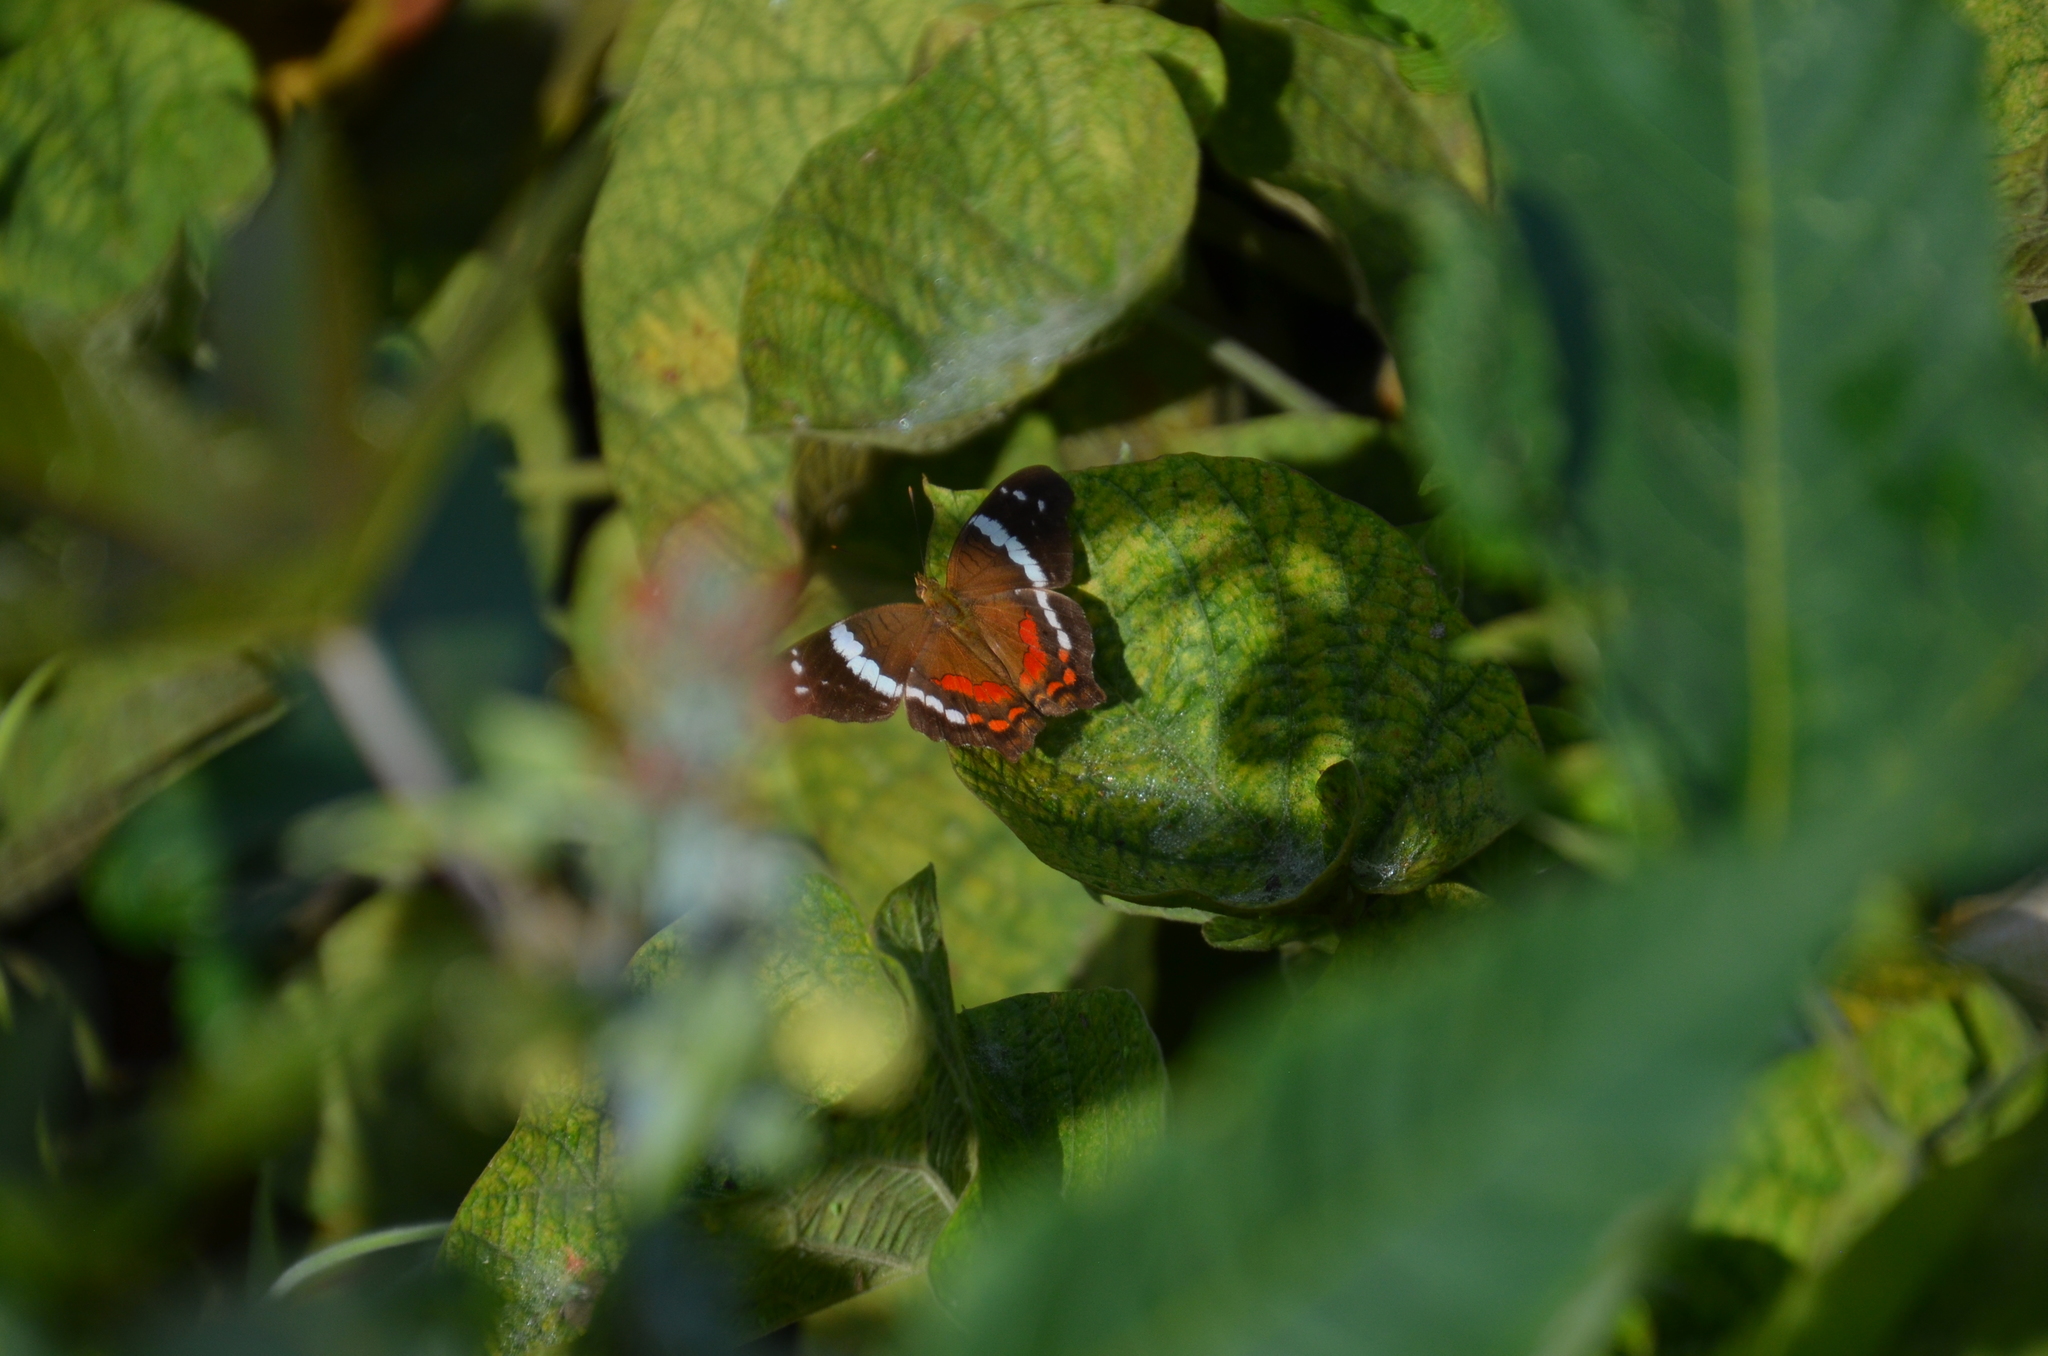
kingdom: Animalia
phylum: Arthropoda
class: Insecta
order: Lepidoptera
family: Nymphalidae
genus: Anartia
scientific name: Anartia fatima
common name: Banded peacock
